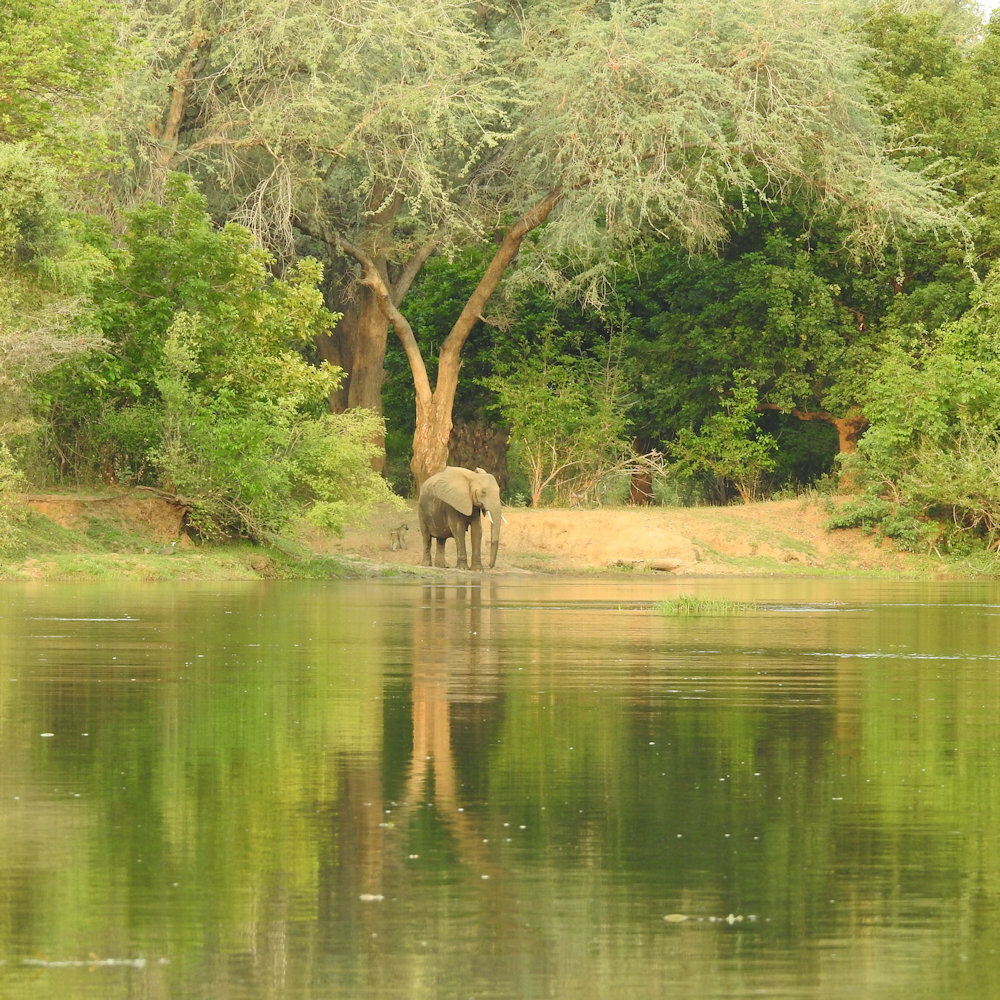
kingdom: Animalia
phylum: Chordata
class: Mammalia
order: Proboscidea
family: Elephantidae
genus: Loxodonta
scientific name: Loxodonta africana
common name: African elephant
